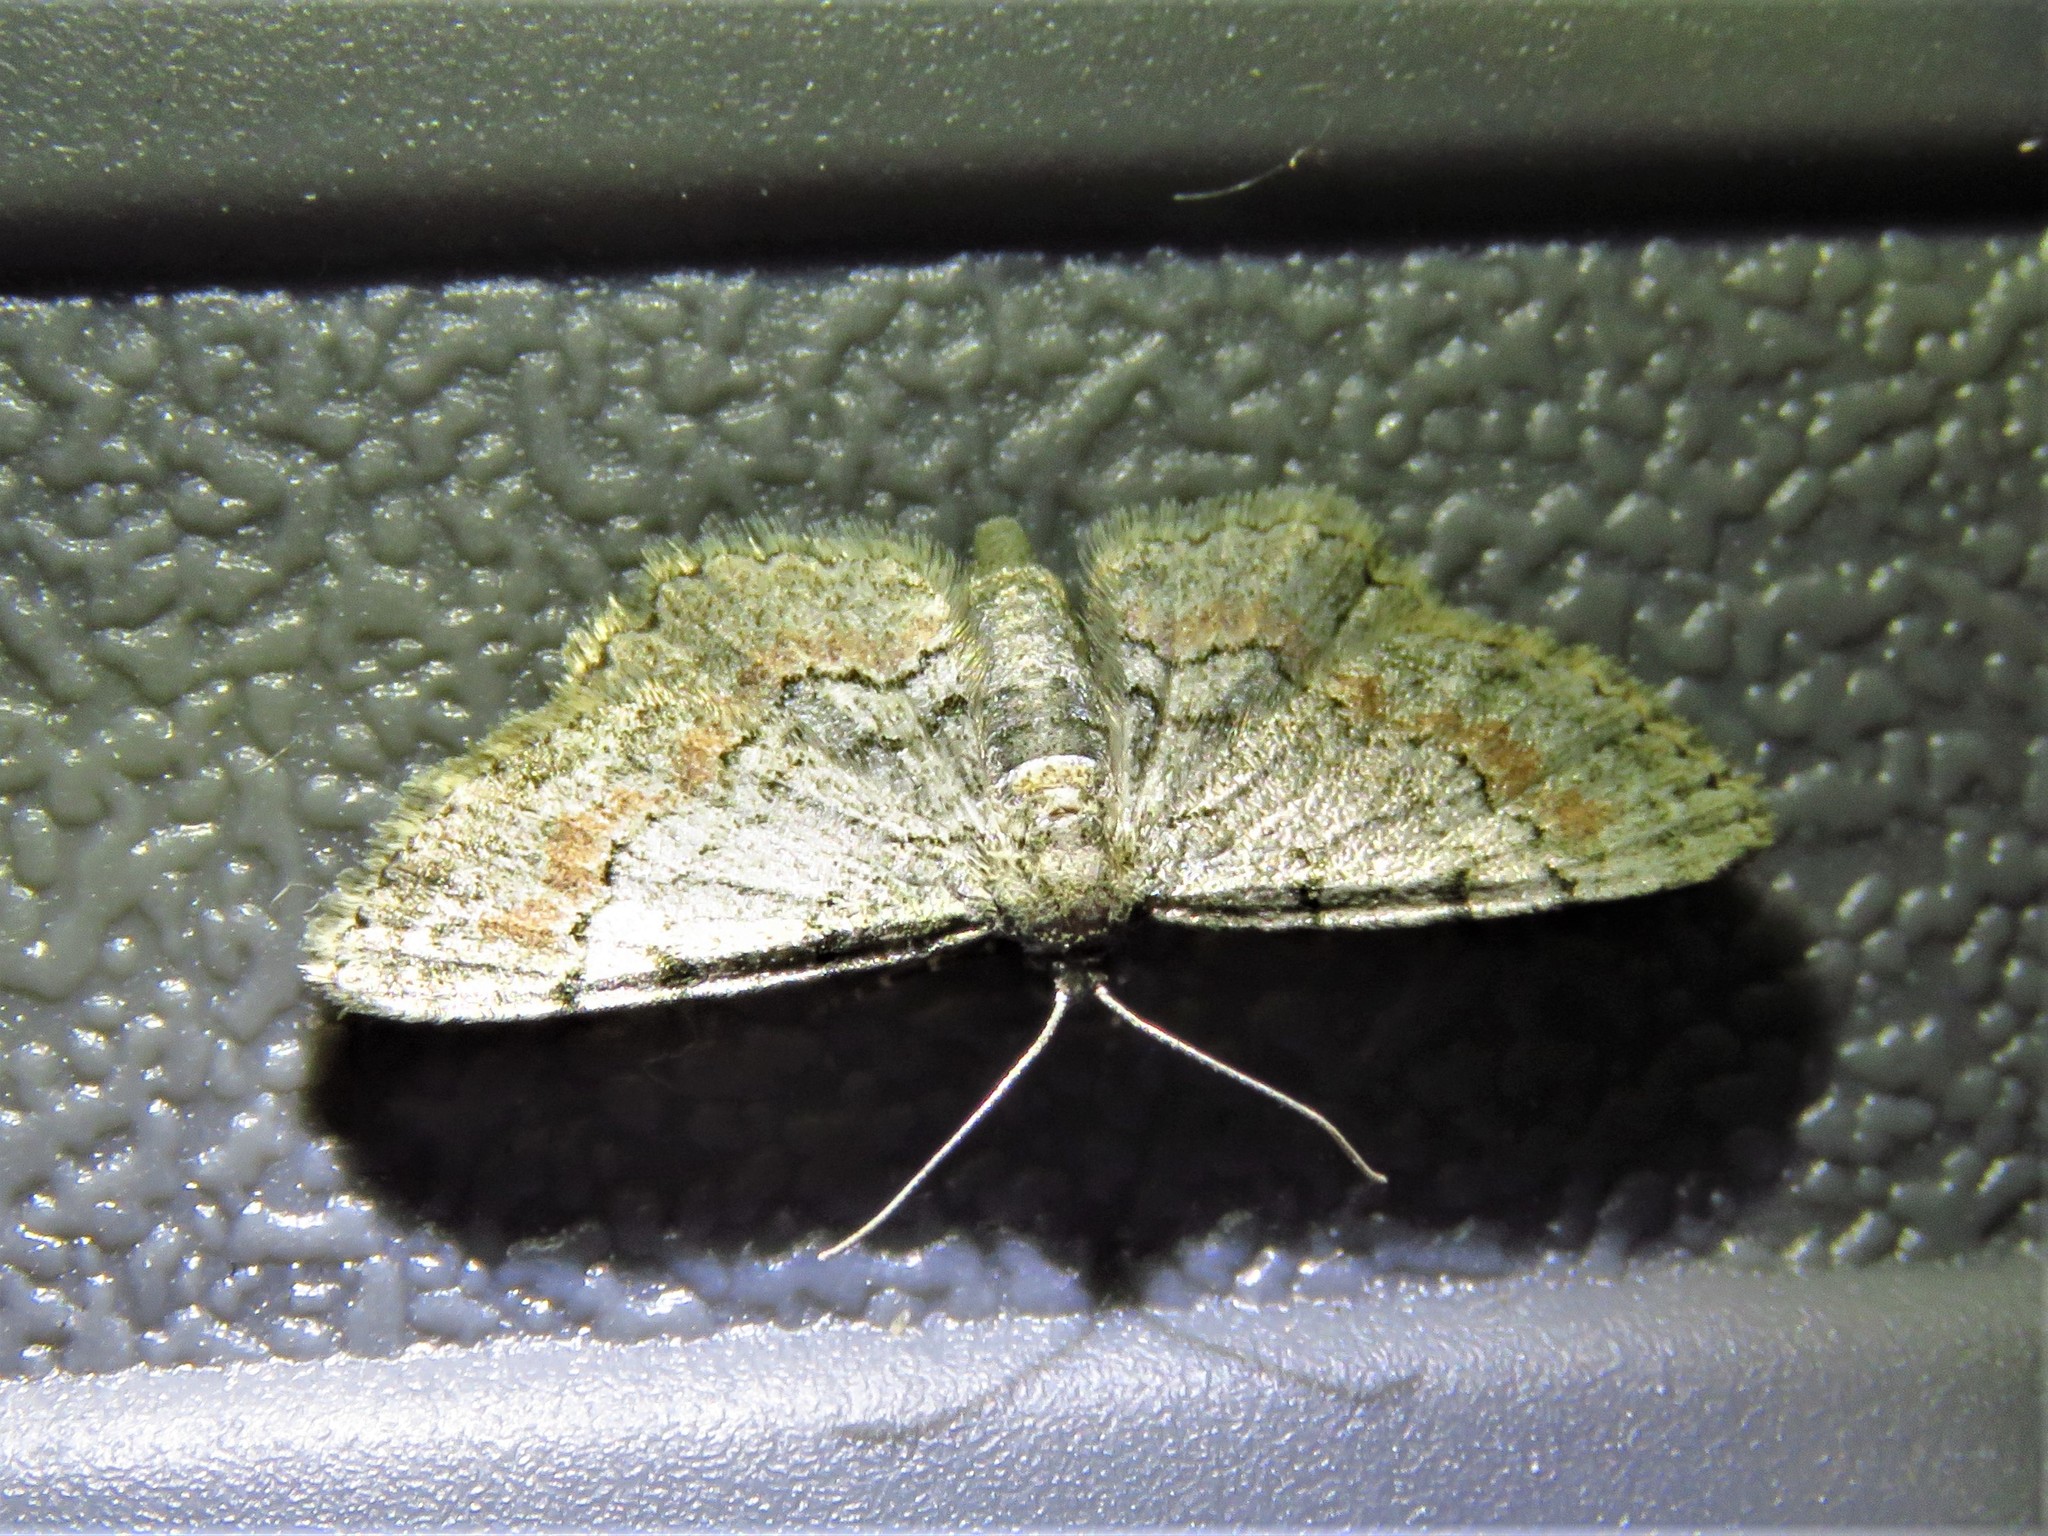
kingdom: Animalia
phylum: Arthropoda
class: Insecta
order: Lepidoptera
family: Geometridae
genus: Glenoides
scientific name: Glenoides texanaria
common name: Texas gray
